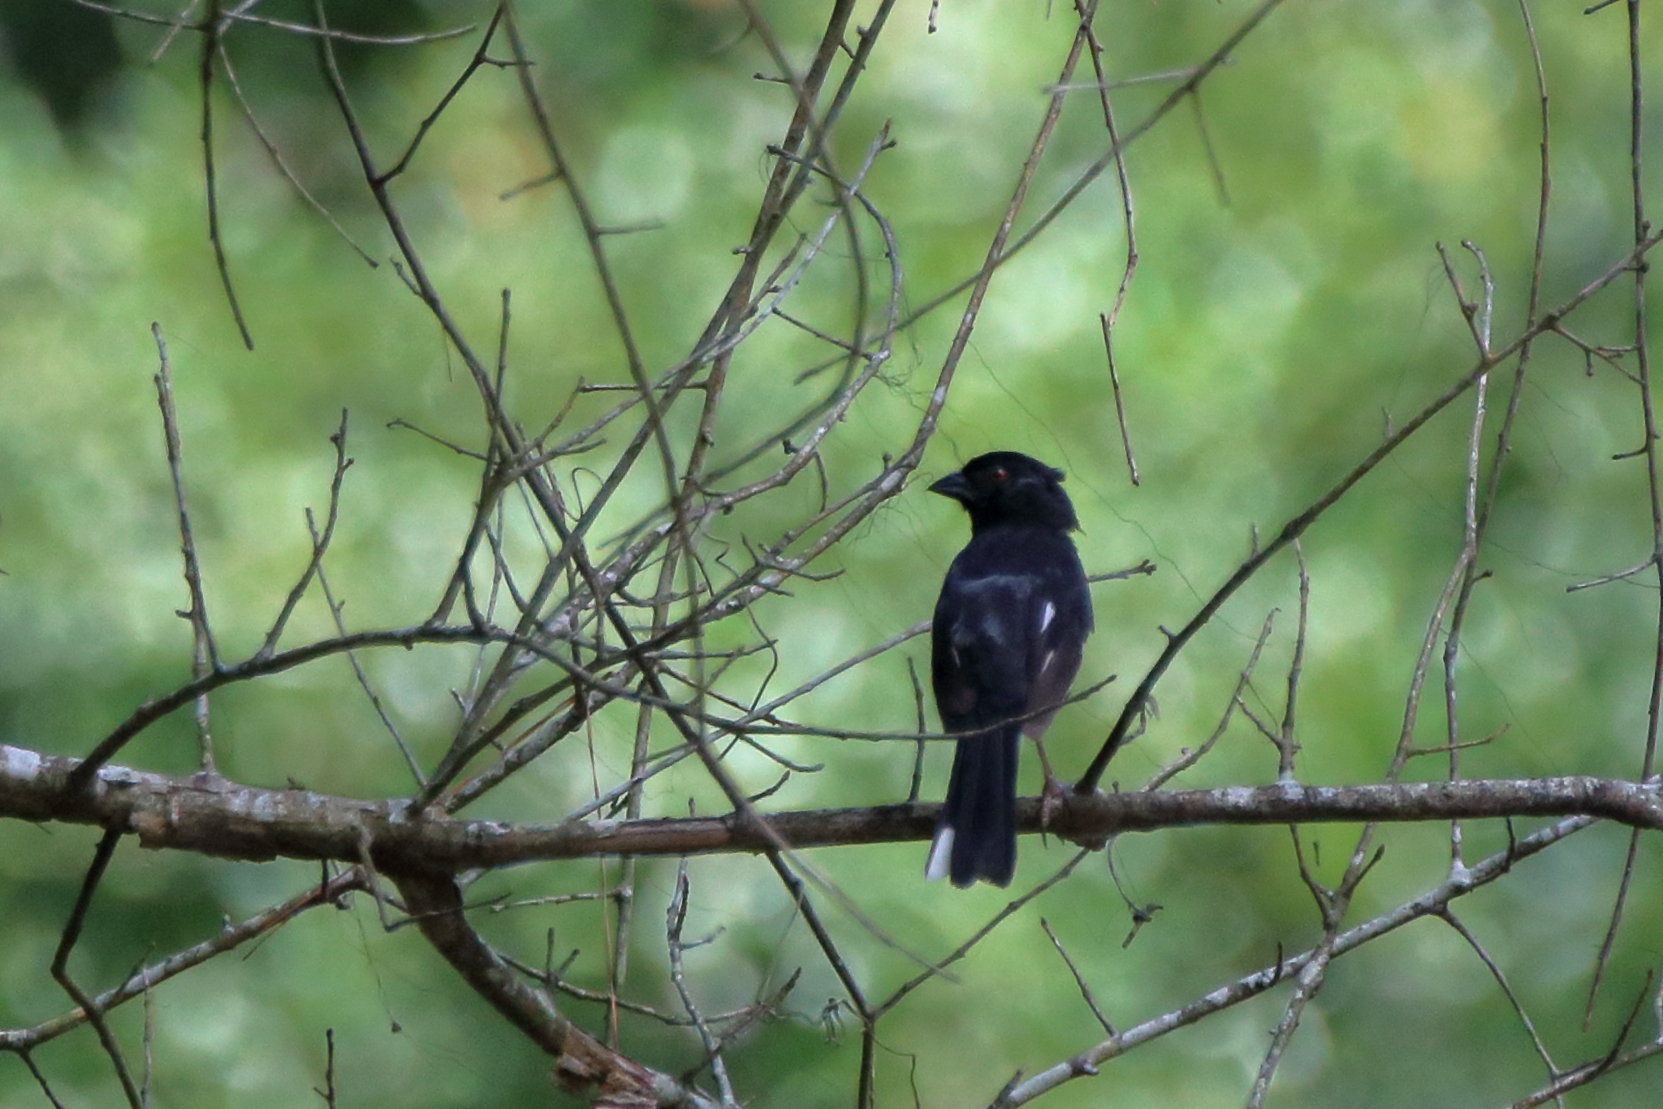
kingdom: Animalia
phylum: Chordata
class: Aves
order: Passeriformes
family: Passerellidae
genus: Pipilo
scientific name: Pipilo erythrophthalmus
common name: Eastern towhee
